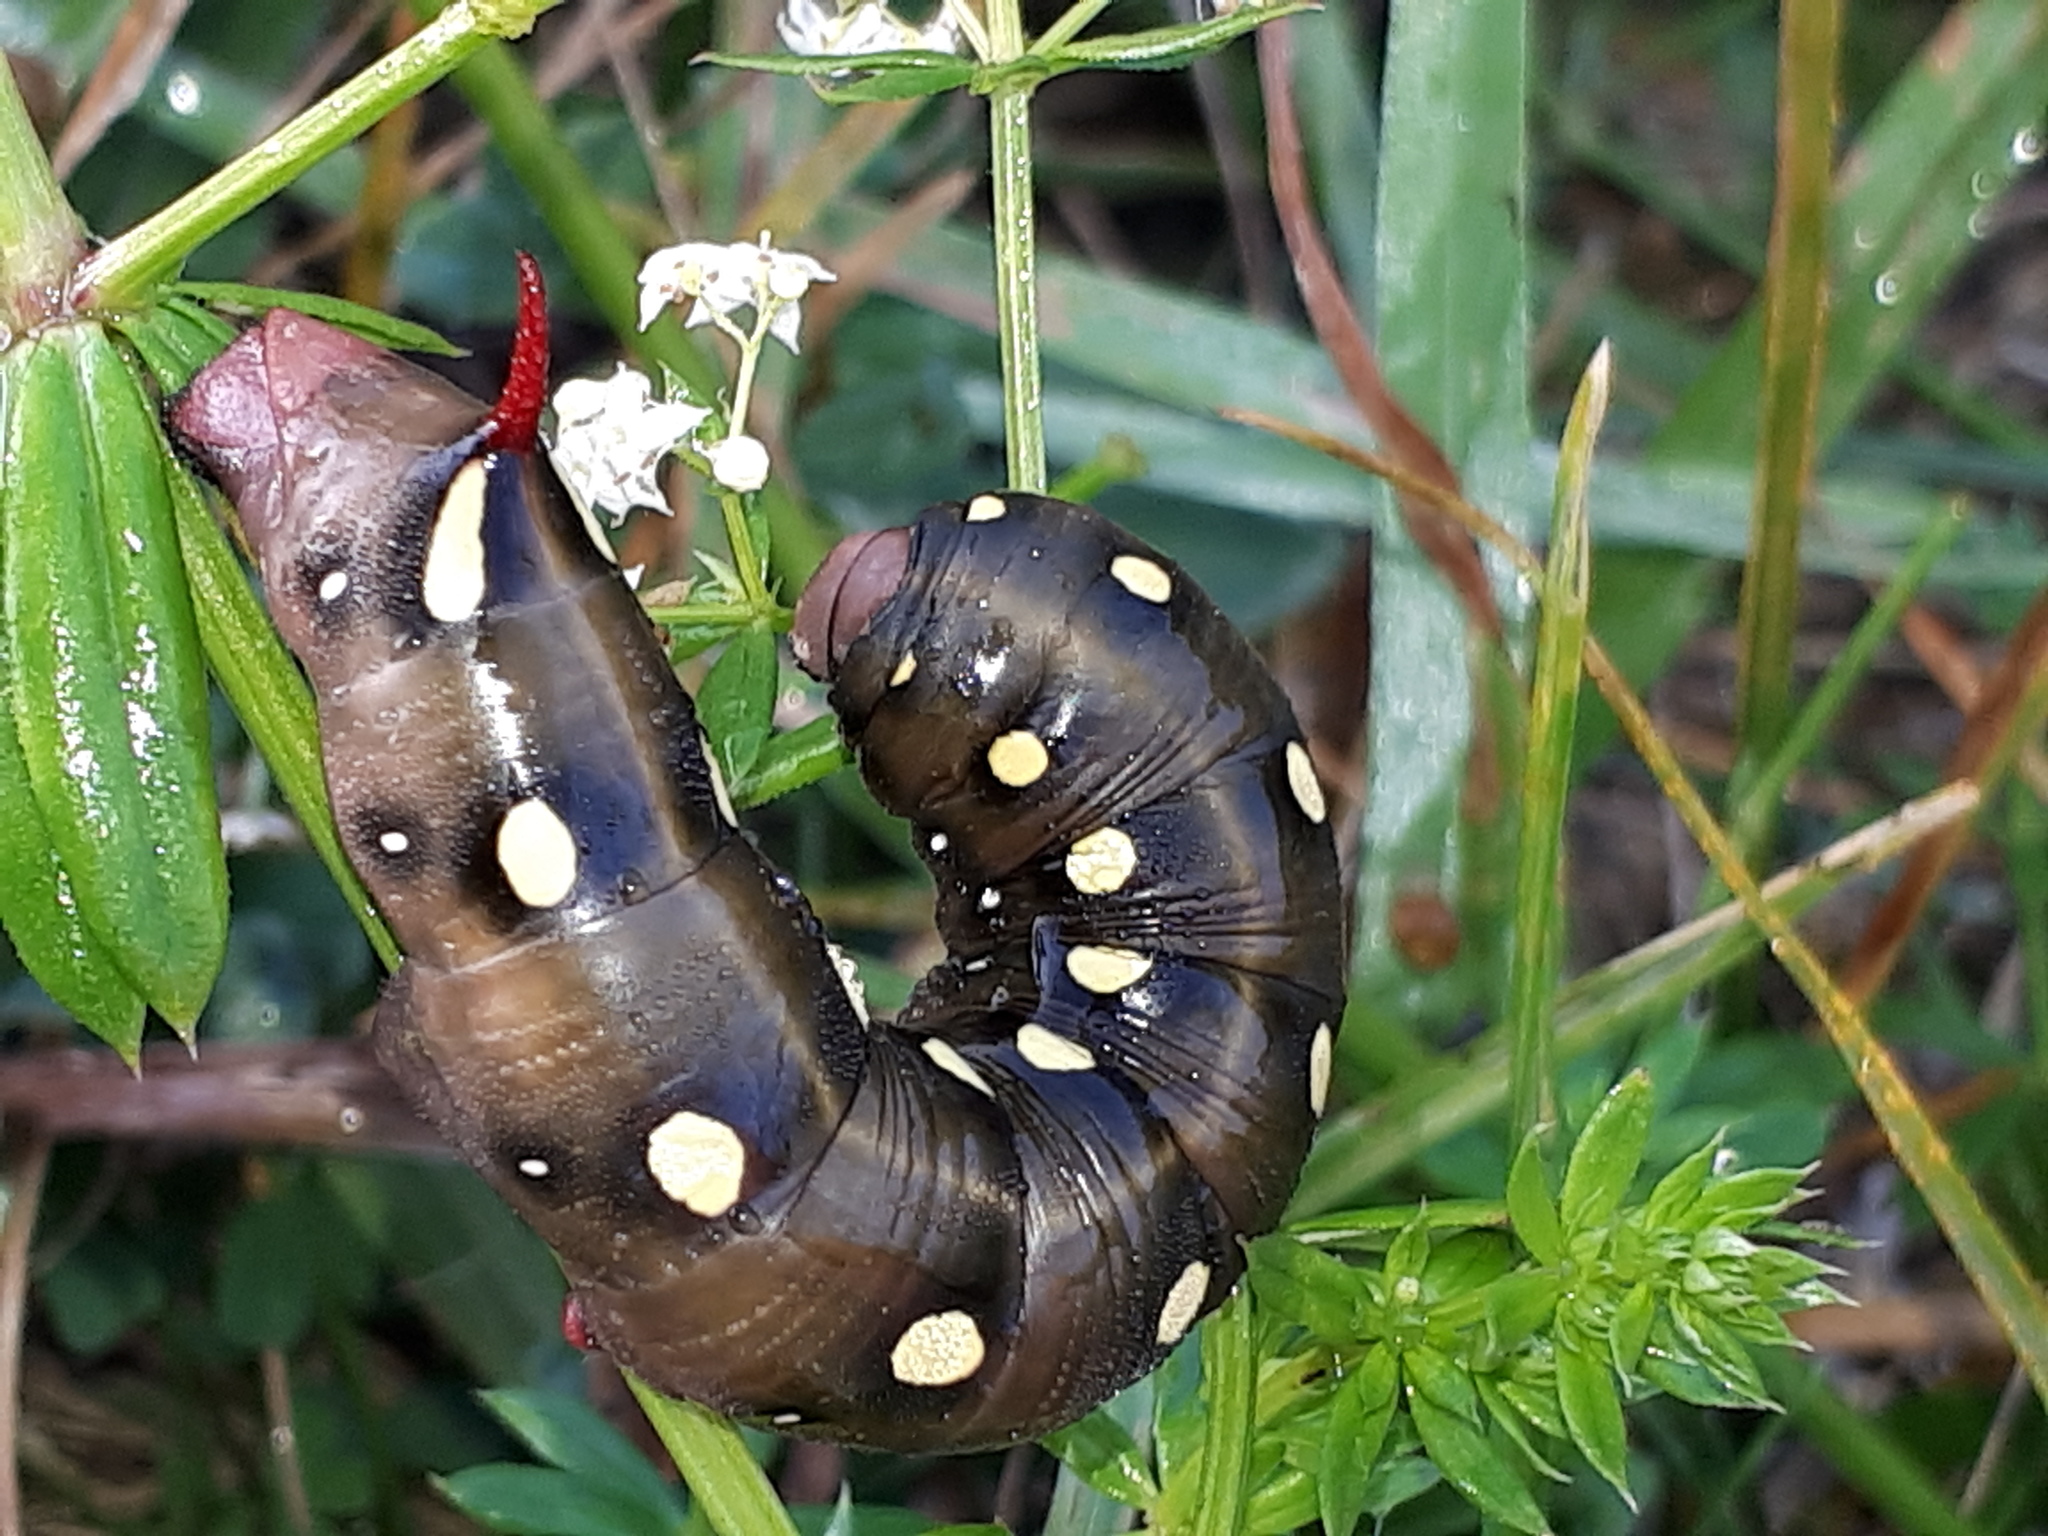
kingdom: Animalia
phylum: Arthropoda
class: Insecta
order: Lepidoptera
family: Sphingidae
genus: Hyles
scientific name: Hyles gallii
